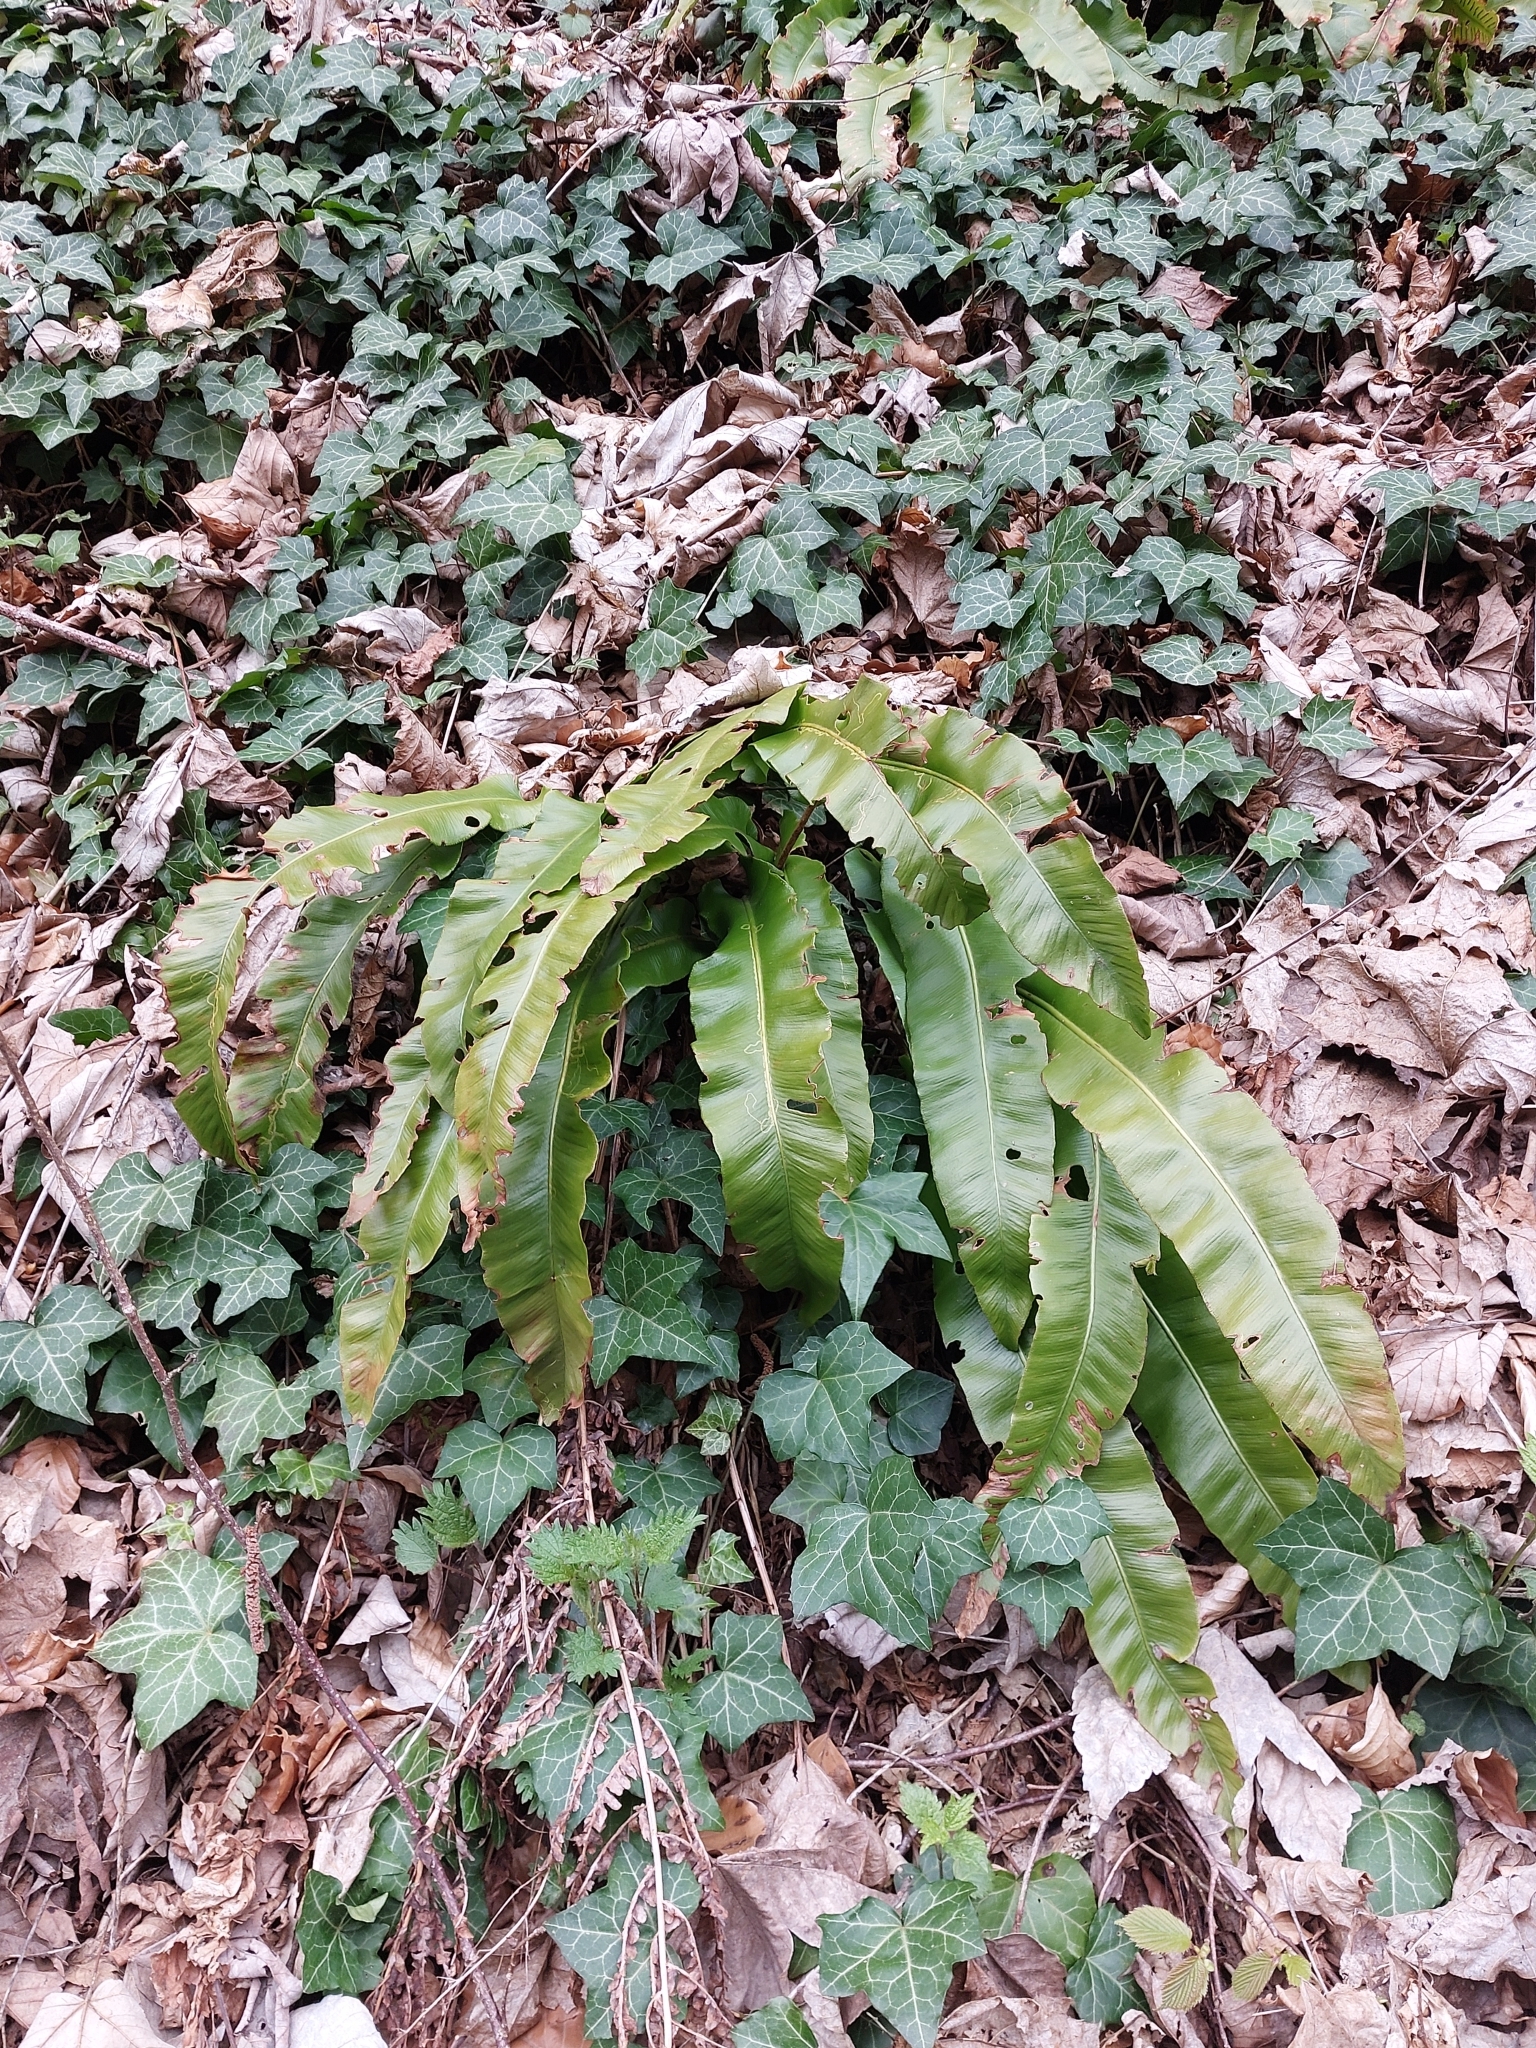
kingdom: Plantae
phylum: Tracheophyta
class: Polypodiopsida
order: Polypodiales
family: Aspleniaceae
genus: Asplenium
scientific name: Asplenium scolopendrium
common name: Hart's-tongue fern
